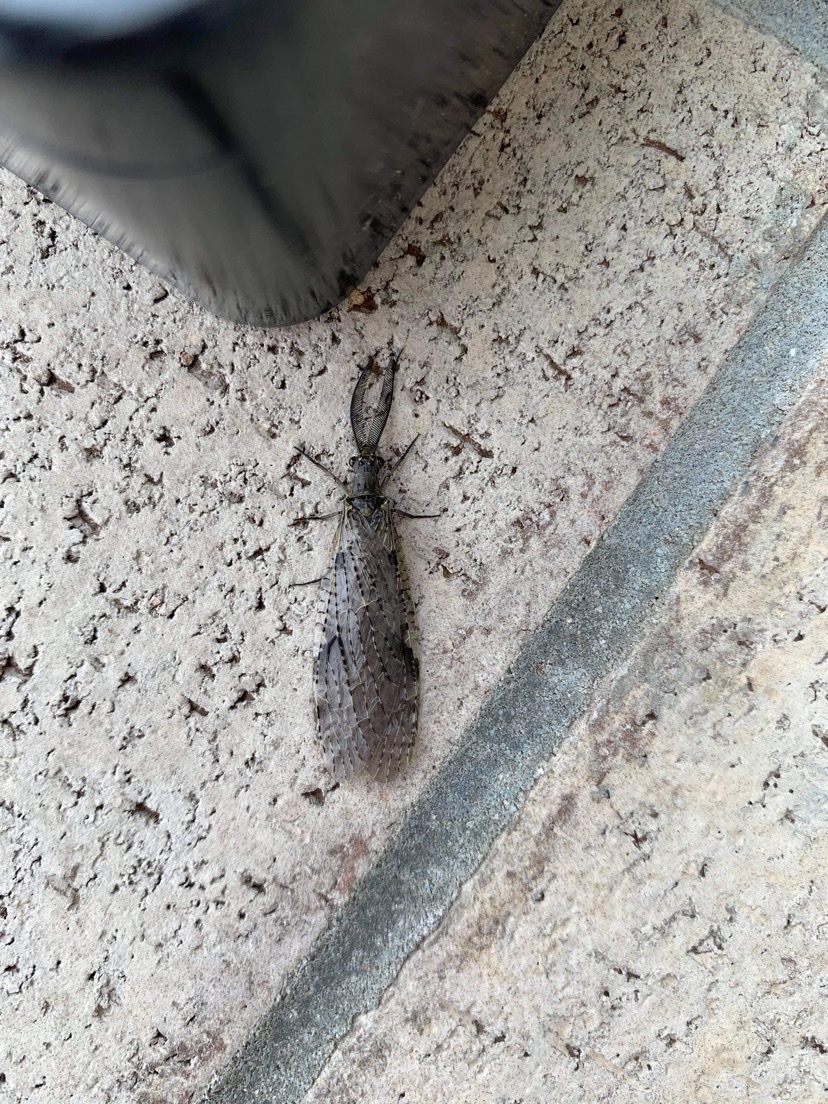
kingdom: Animalia
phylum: Arthropoda
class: Insecta
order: Megaloptera
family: Corydalidae
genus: Chauliodes
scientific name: Chauliodes rastricornis
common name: Spring fishfly
